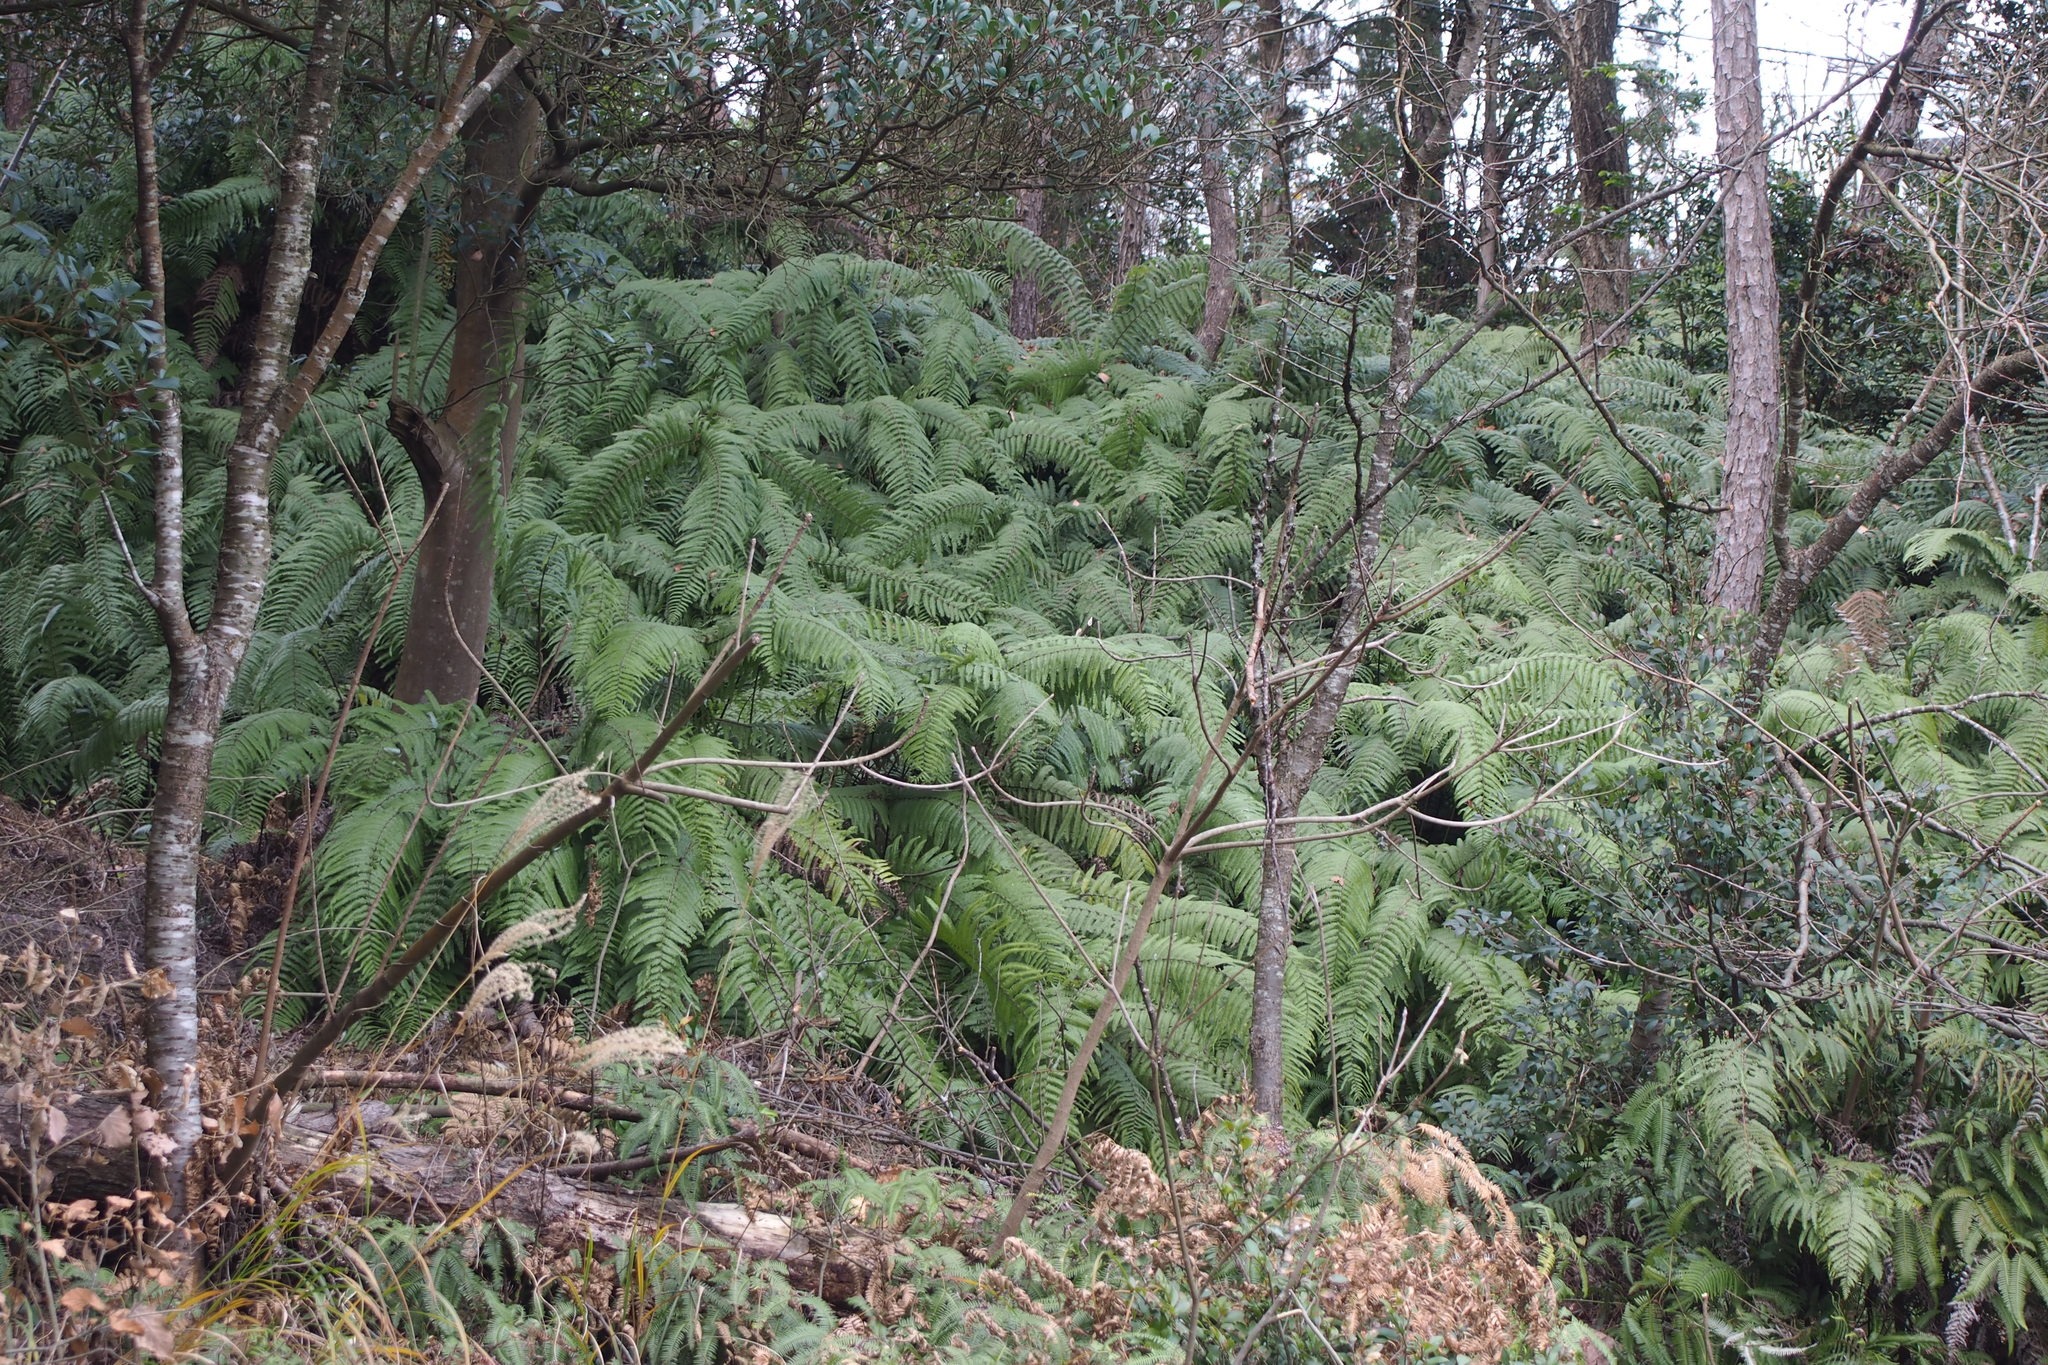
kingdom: Plantae
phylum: Tracheophyta
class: Polypodiopsida
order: Gleicheniales
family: Gleicheniaceae
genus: Diplopterygium
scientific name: Diplopterygium glaucum
